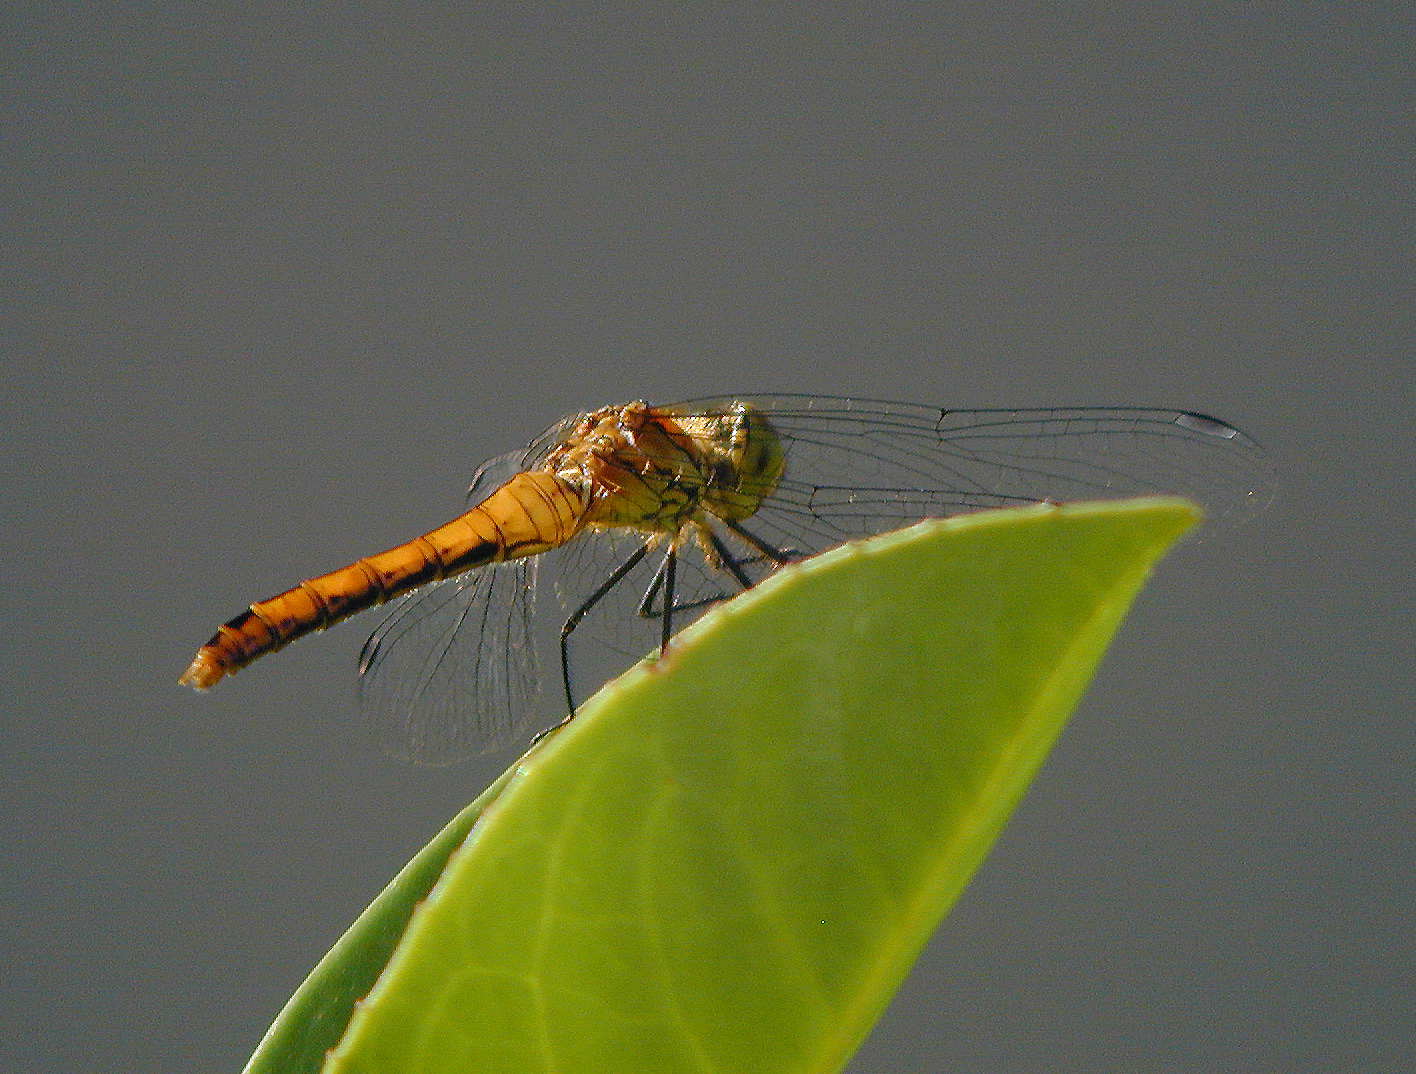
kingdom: Animalia
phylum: Arthropoda
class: Insecta
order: Odonata
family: Libellulidae
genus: Sympetrum
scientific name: Sympetrum sanguineum
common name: Ruddy darter
